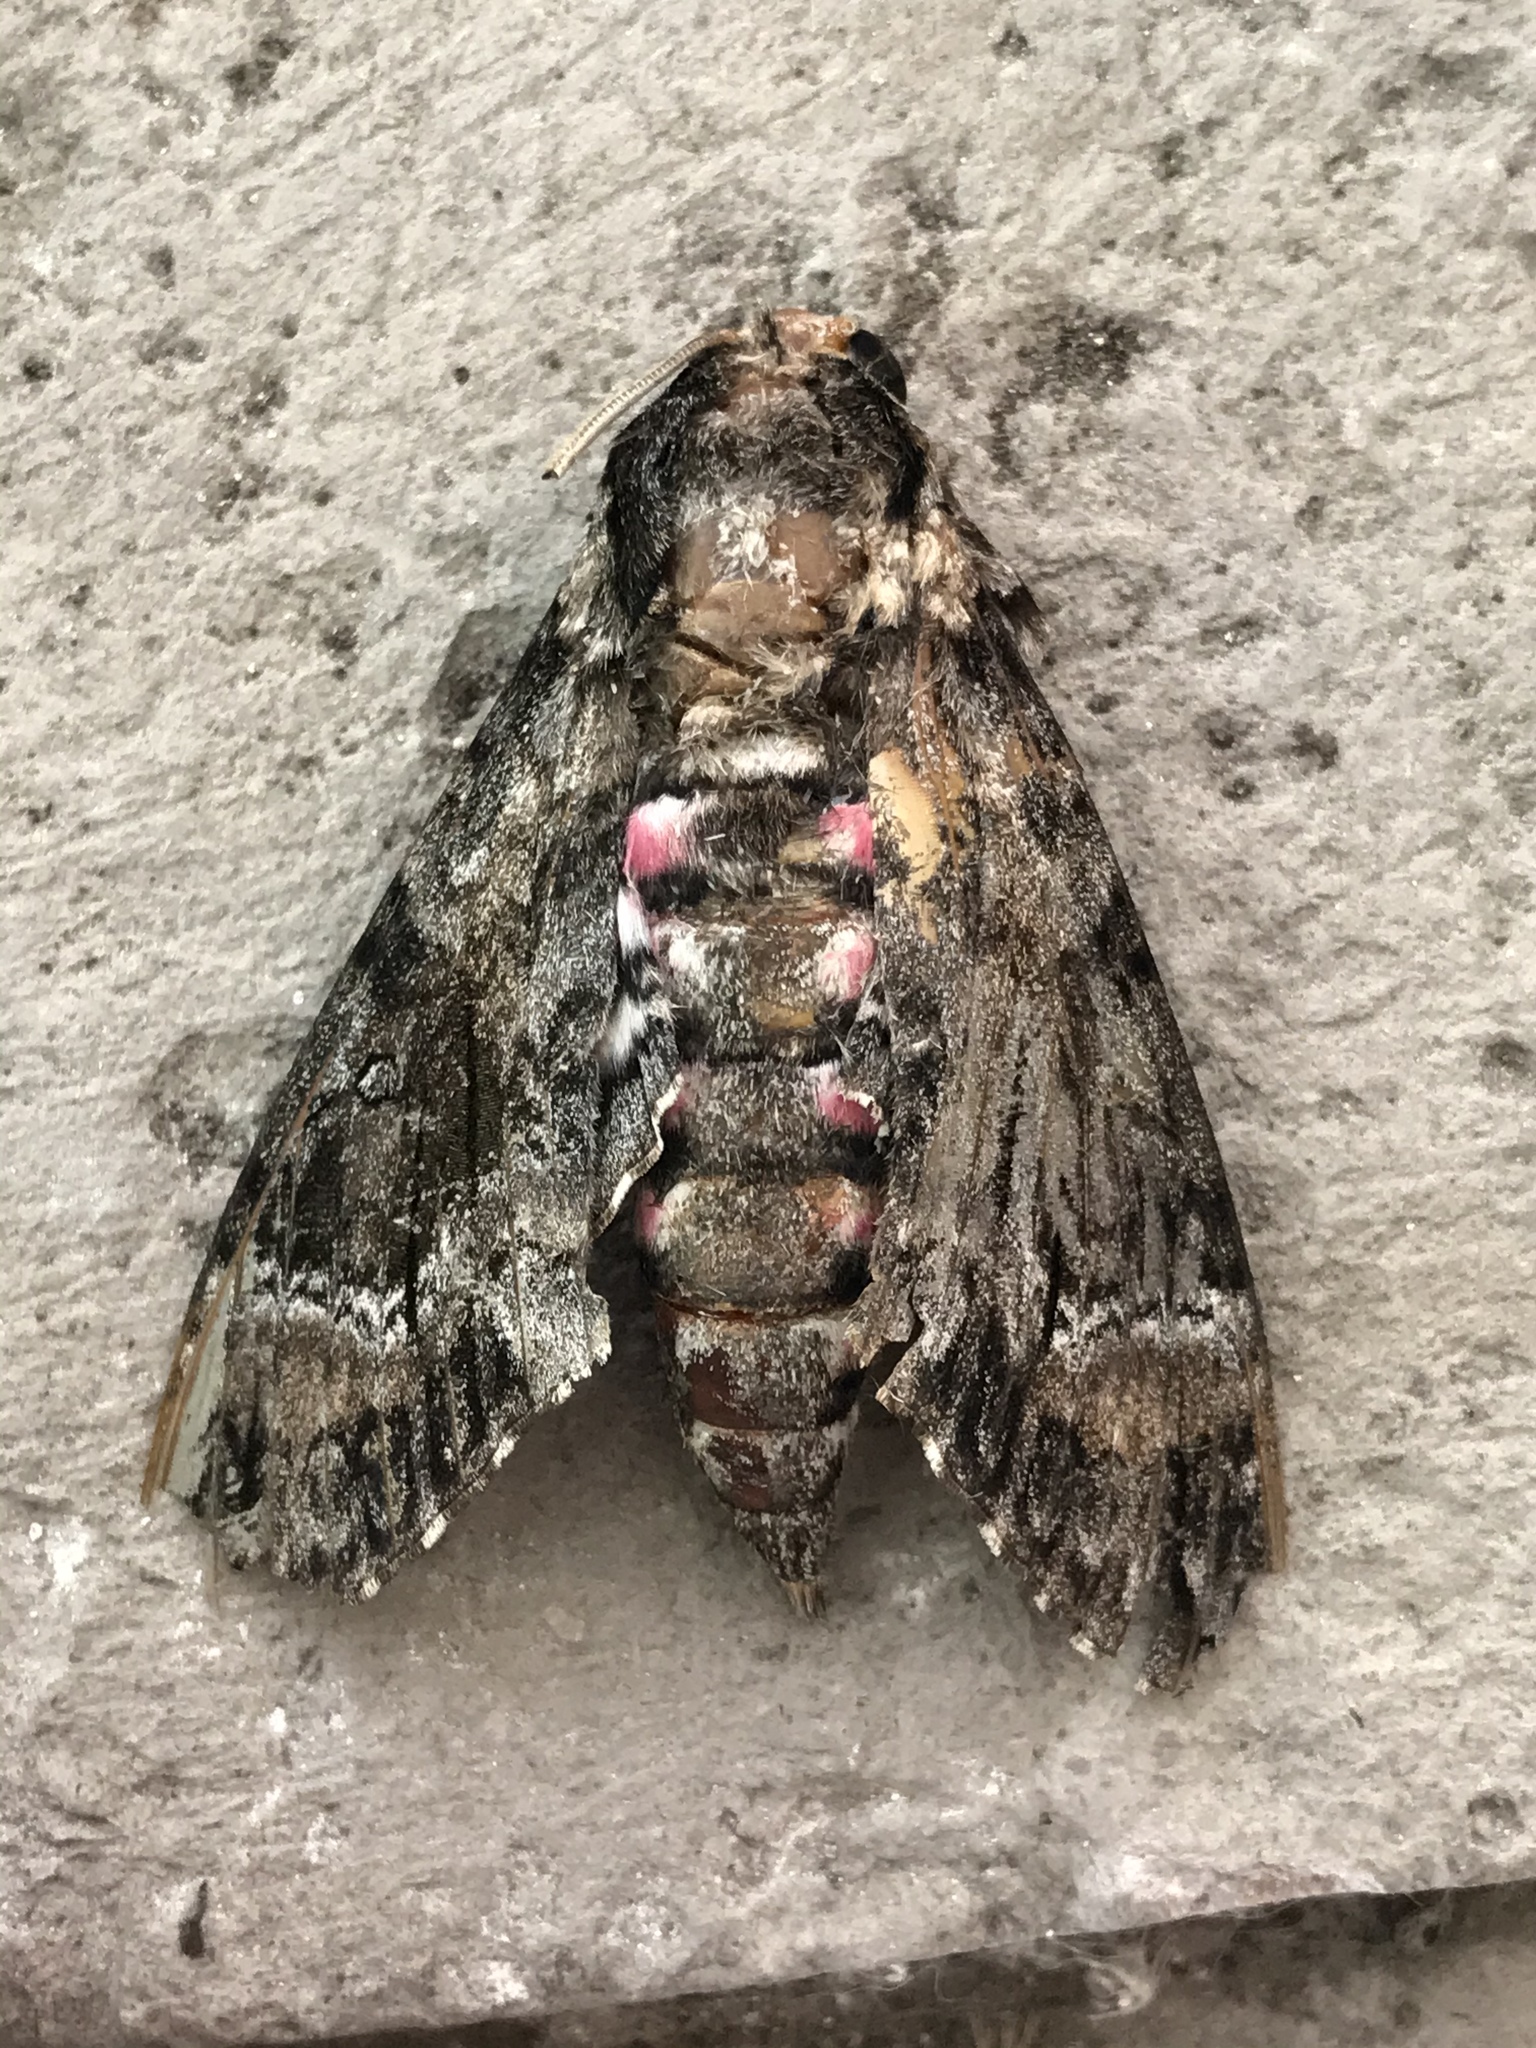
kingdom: Animalia
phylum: Arthropoda
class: Insecta
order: Lepidoptera
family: Sphingidae
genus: Agrius
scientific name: Agrius cingulata
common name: Pink-spotted hawkmoth
